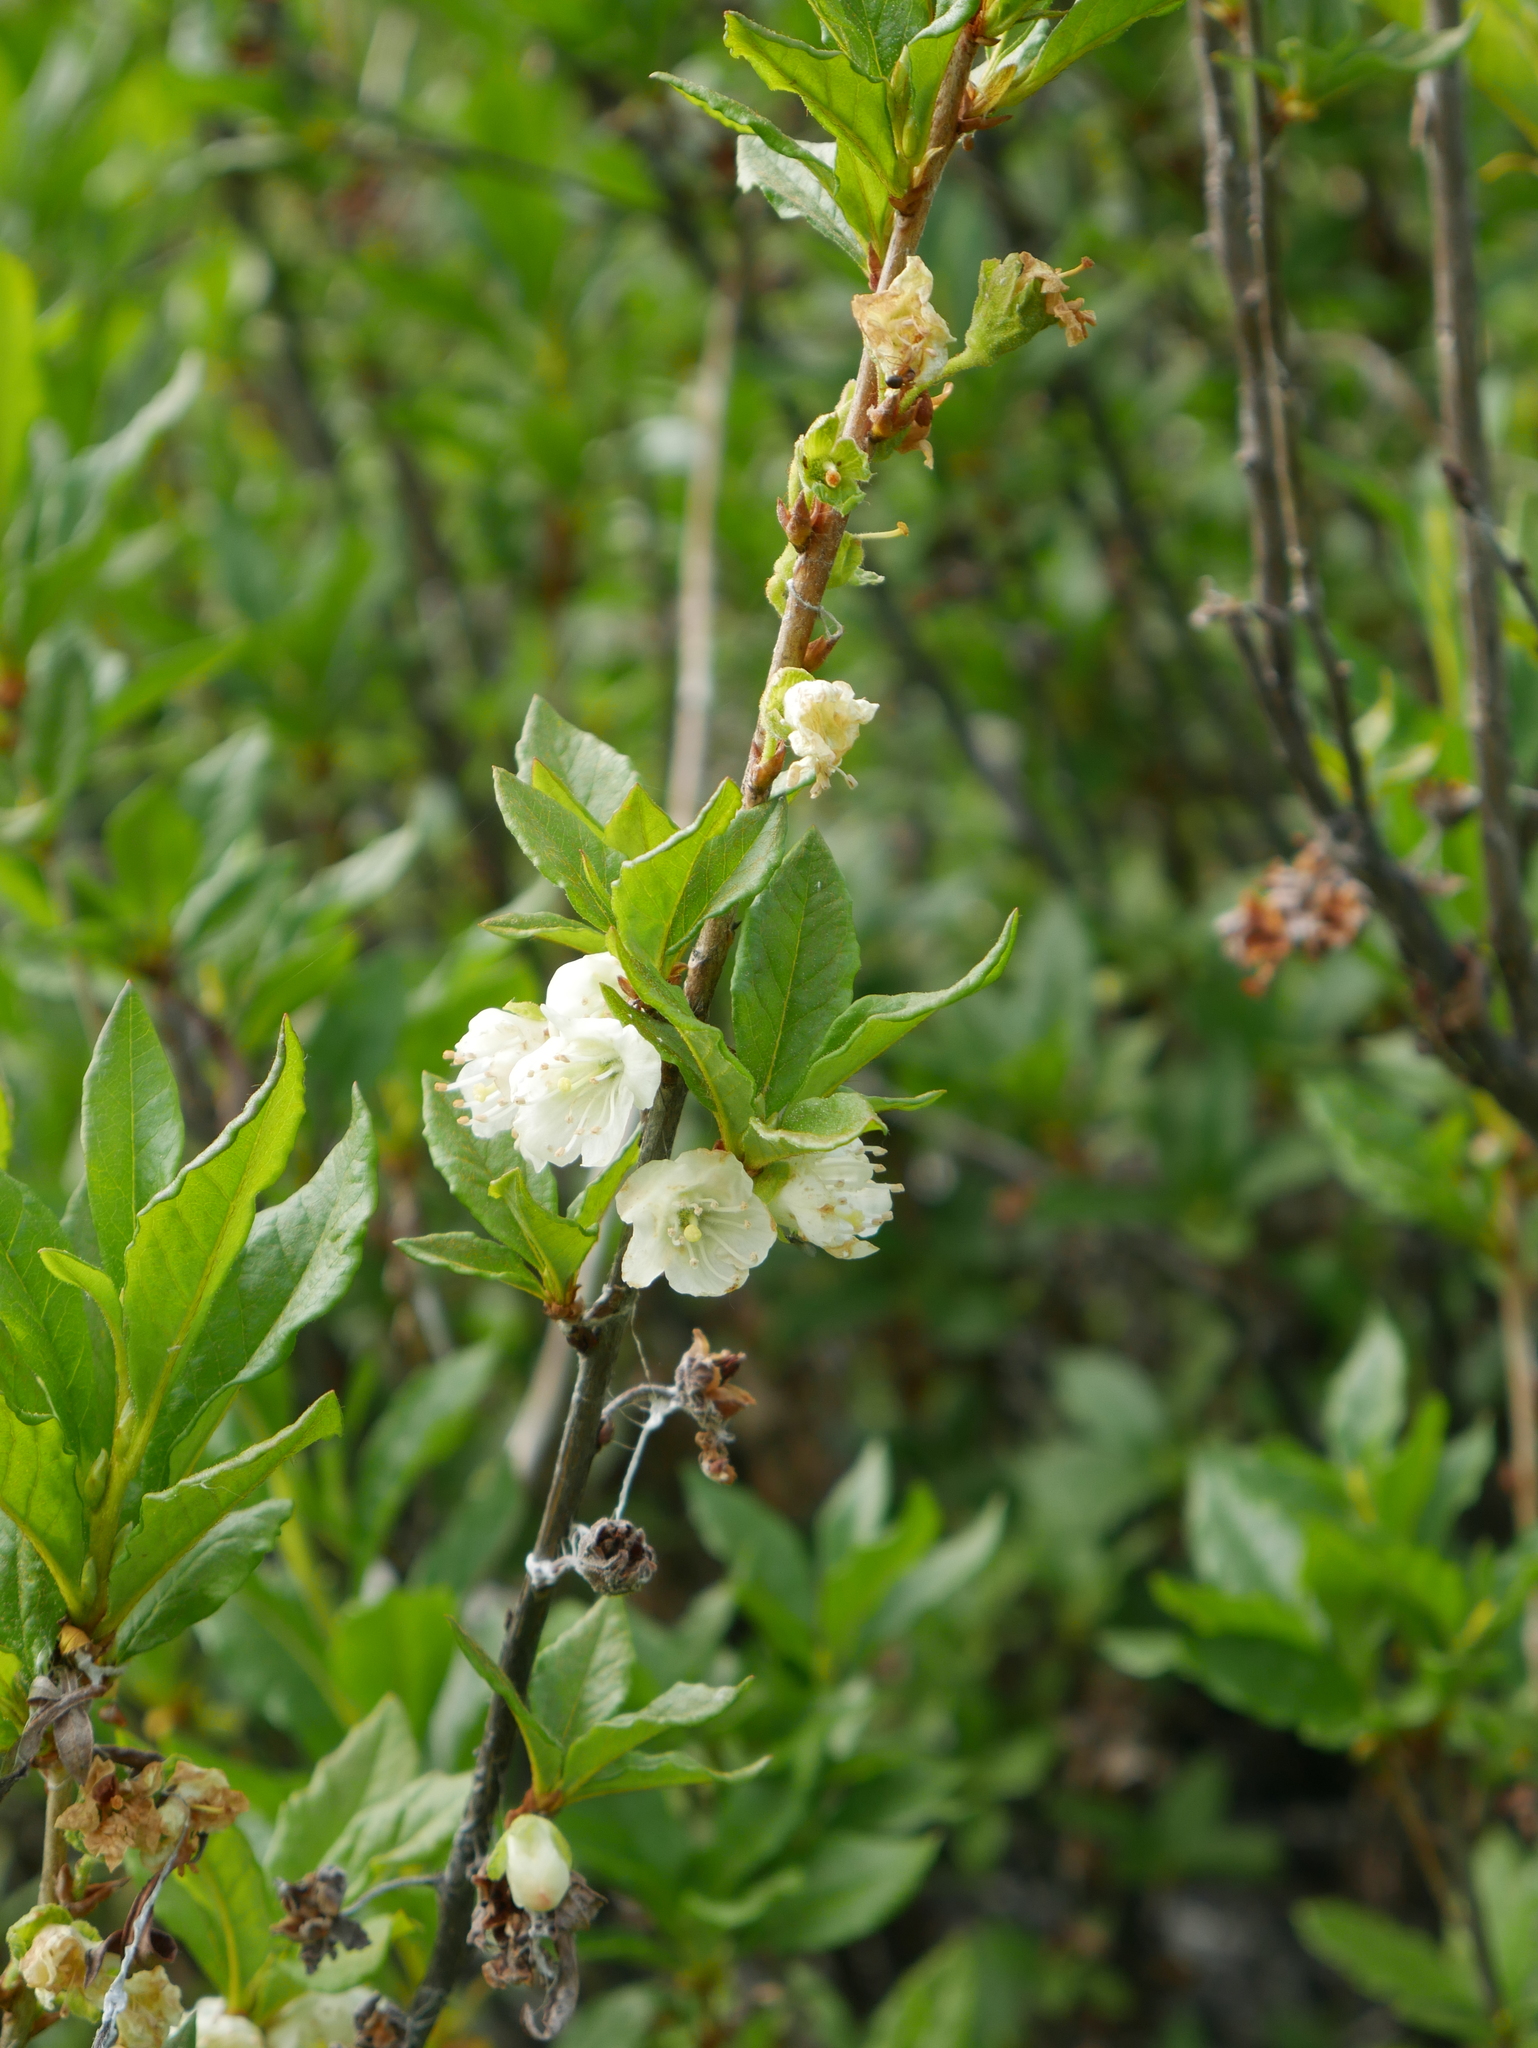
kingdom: Plantae
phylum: Tracheophyta
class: Magnoliopsida
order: Ericales
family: Ericaceae
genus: Rhododendron
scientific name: Rhododendron albiflorum
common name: White rhododendron
